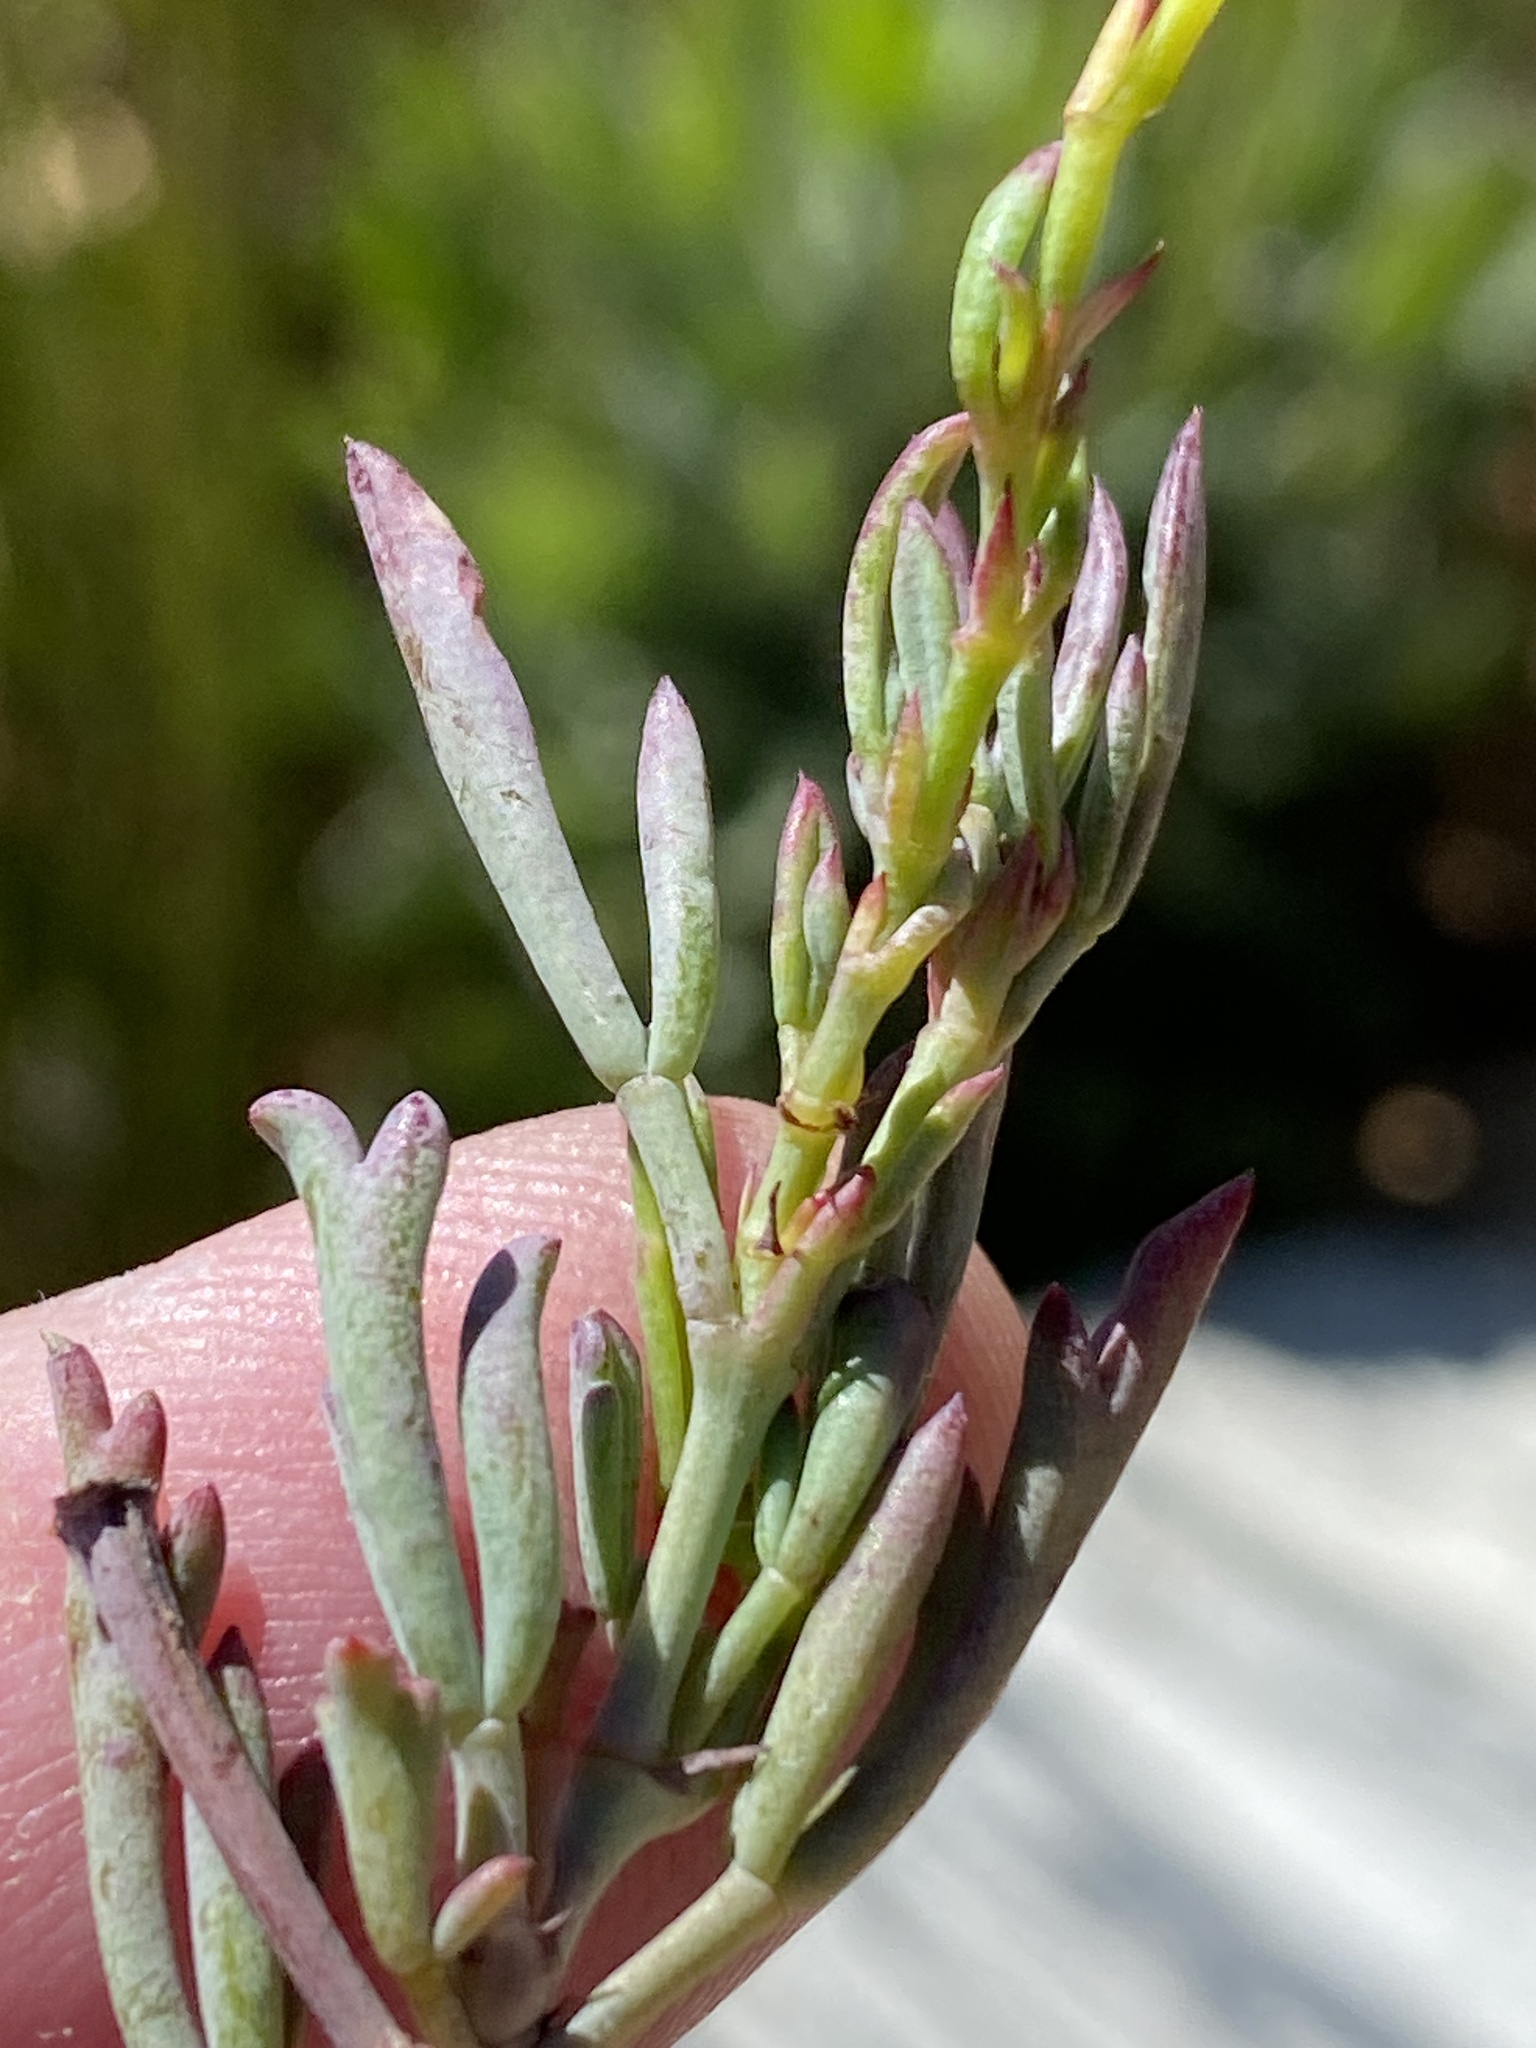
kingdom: Plantae
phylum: Tracheophyta
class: Magnoliopsida
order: Geraniales
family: Geraniaceae
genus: Pelargonium
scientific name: Pelargonium laevigatum
